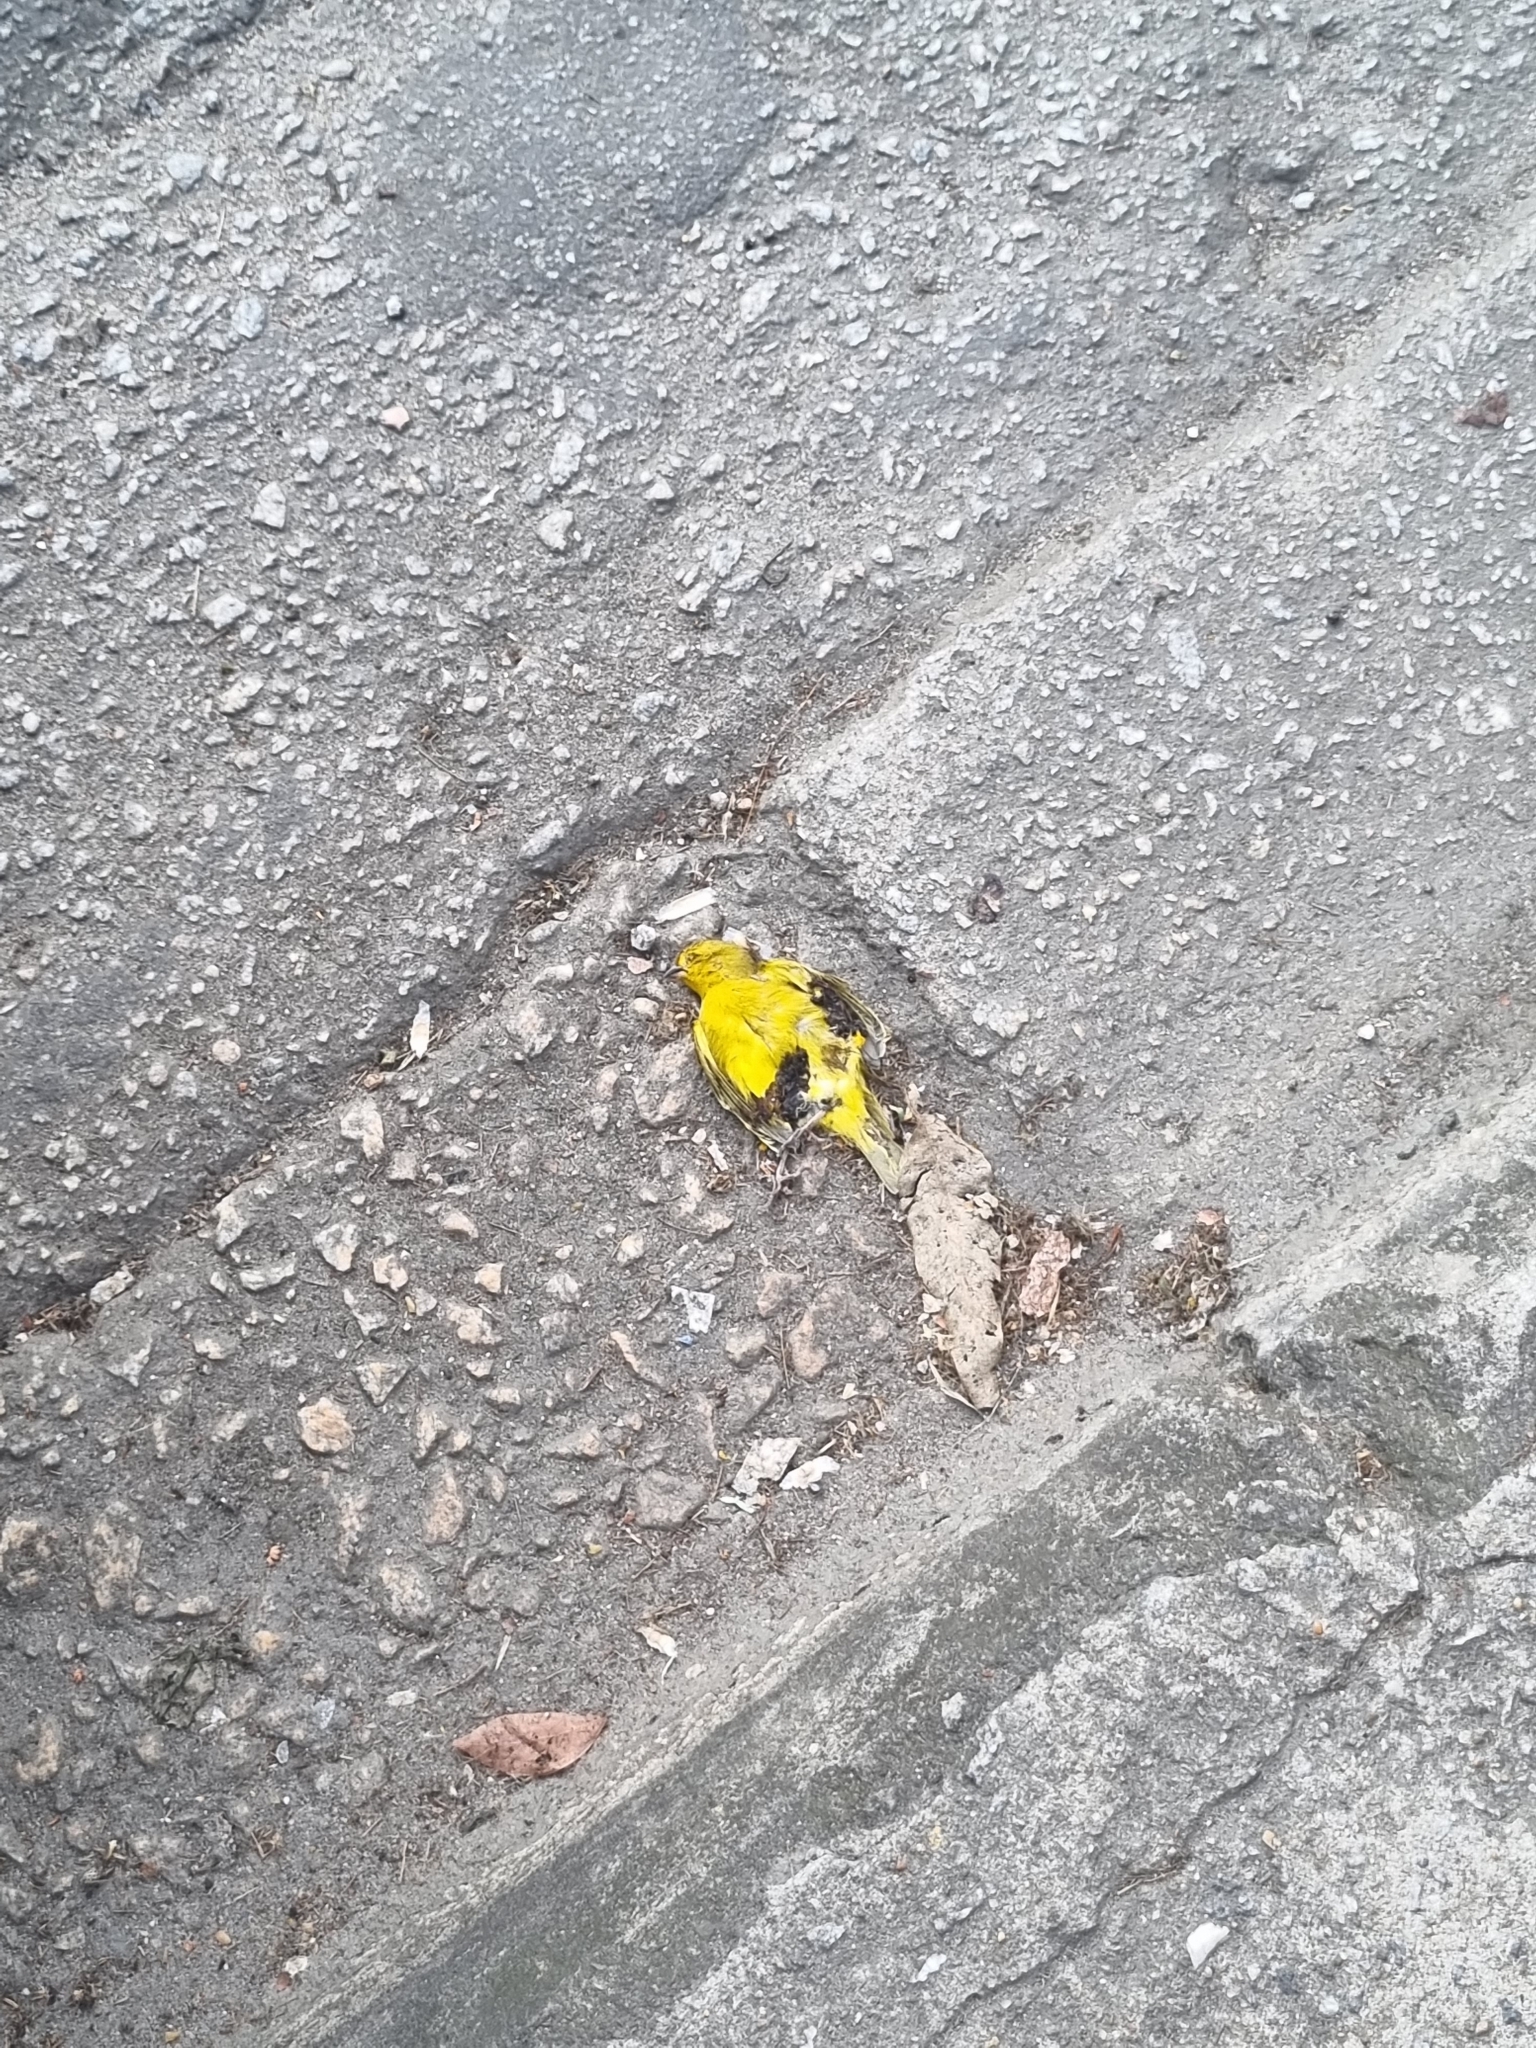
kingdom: Animalia
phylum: Chordata
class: Aves
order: Passeriformes
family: Thraupidae
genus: Sicalis
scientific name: Sicalis flaveola
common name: Saffron finch
